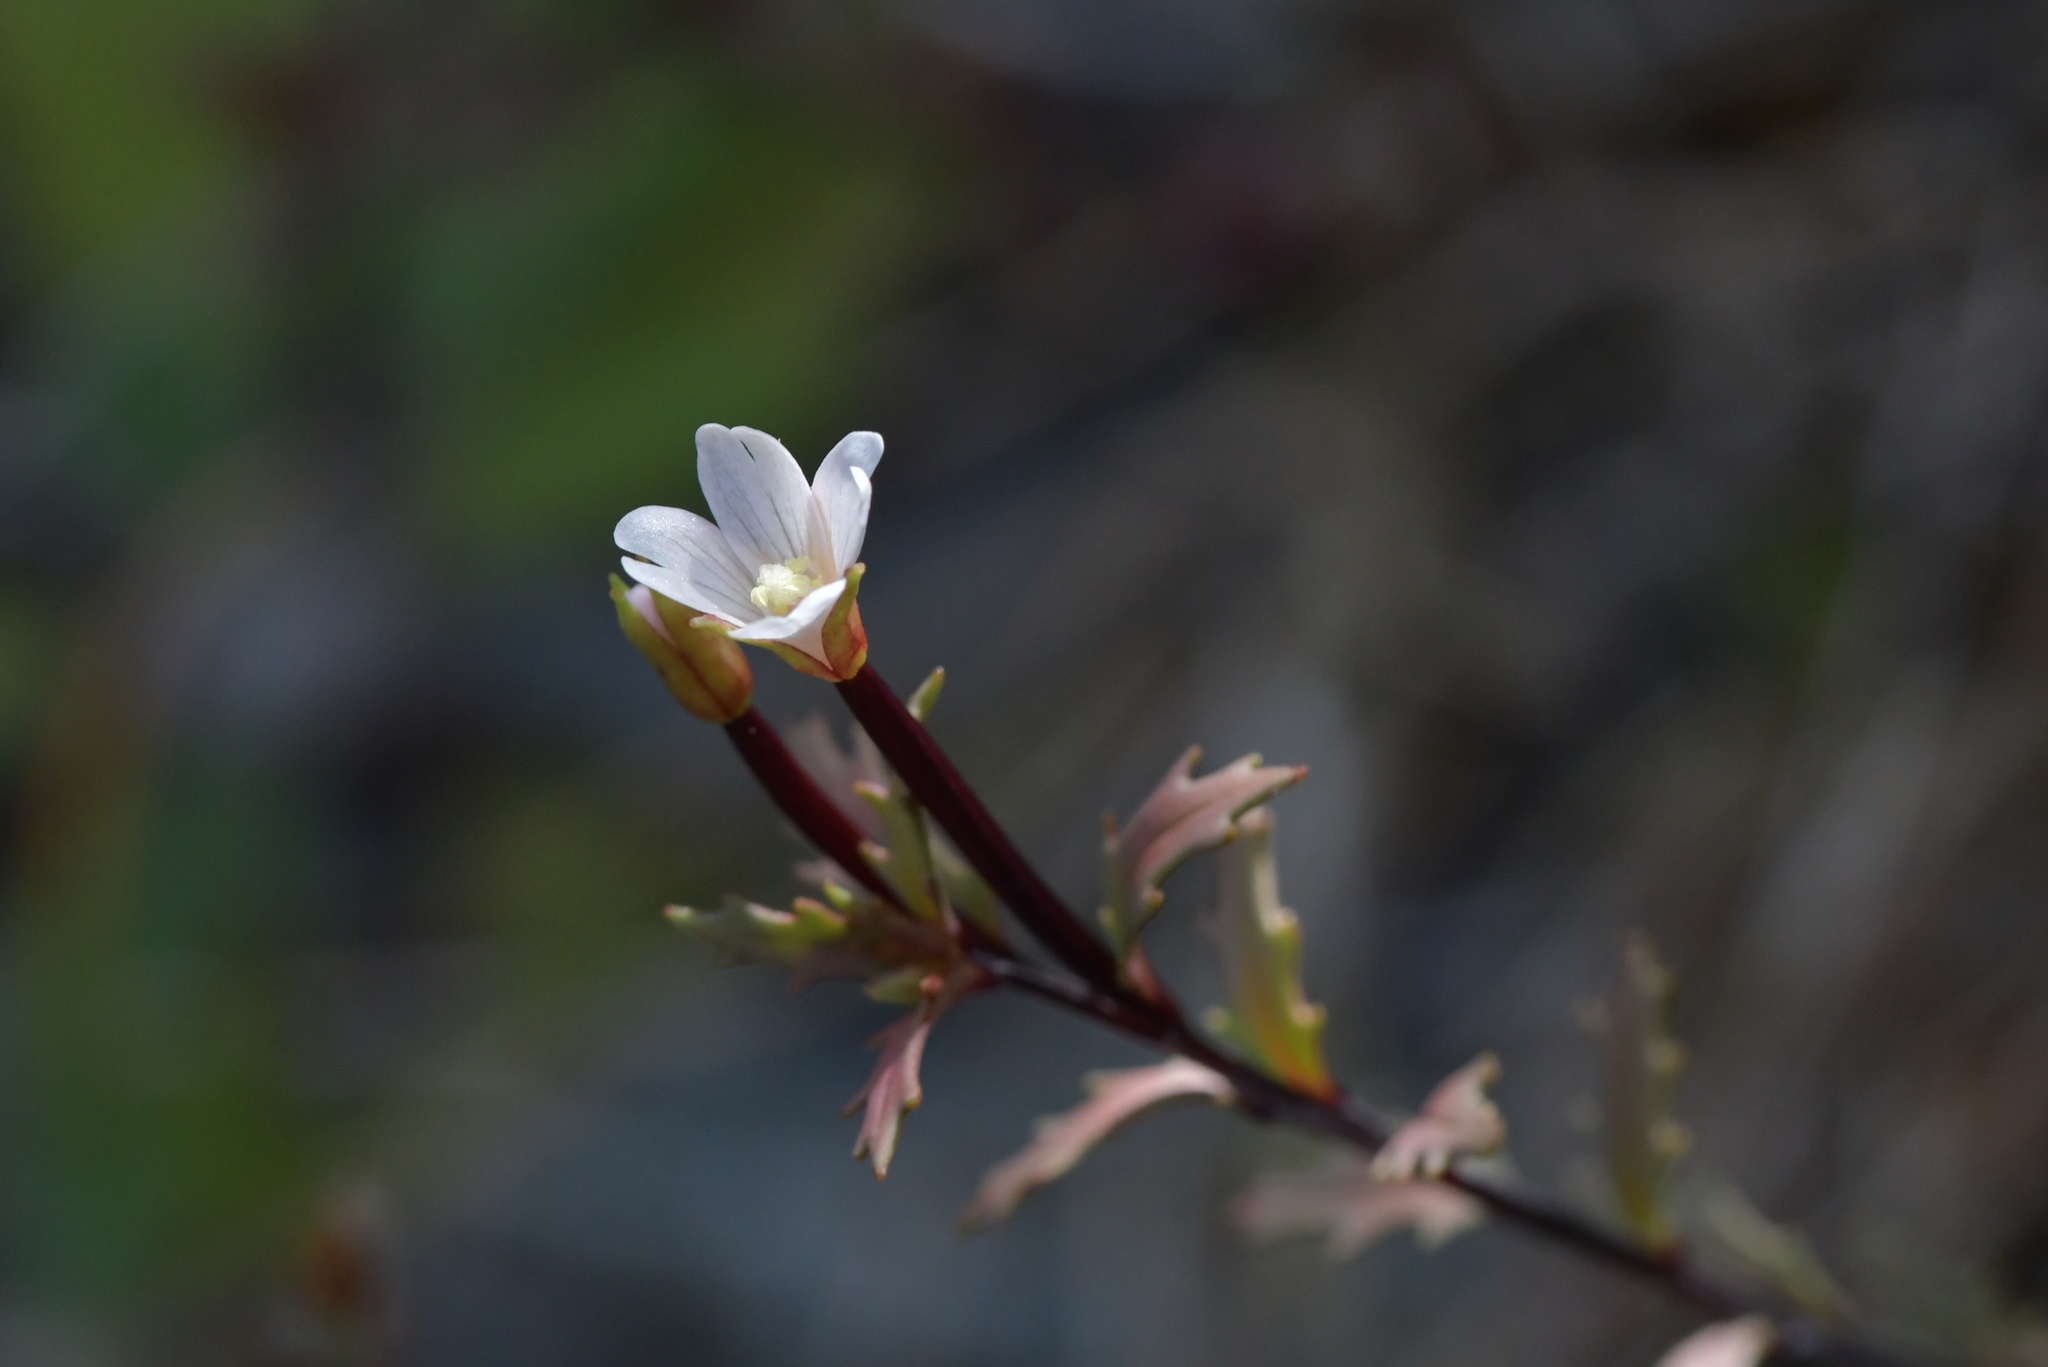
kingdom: Plantae
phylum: Tracheophyta
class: Magnoliopsida
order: Myrtales
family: Onagraceae
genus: Epilobium
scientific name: Epilobium melanocaulon
